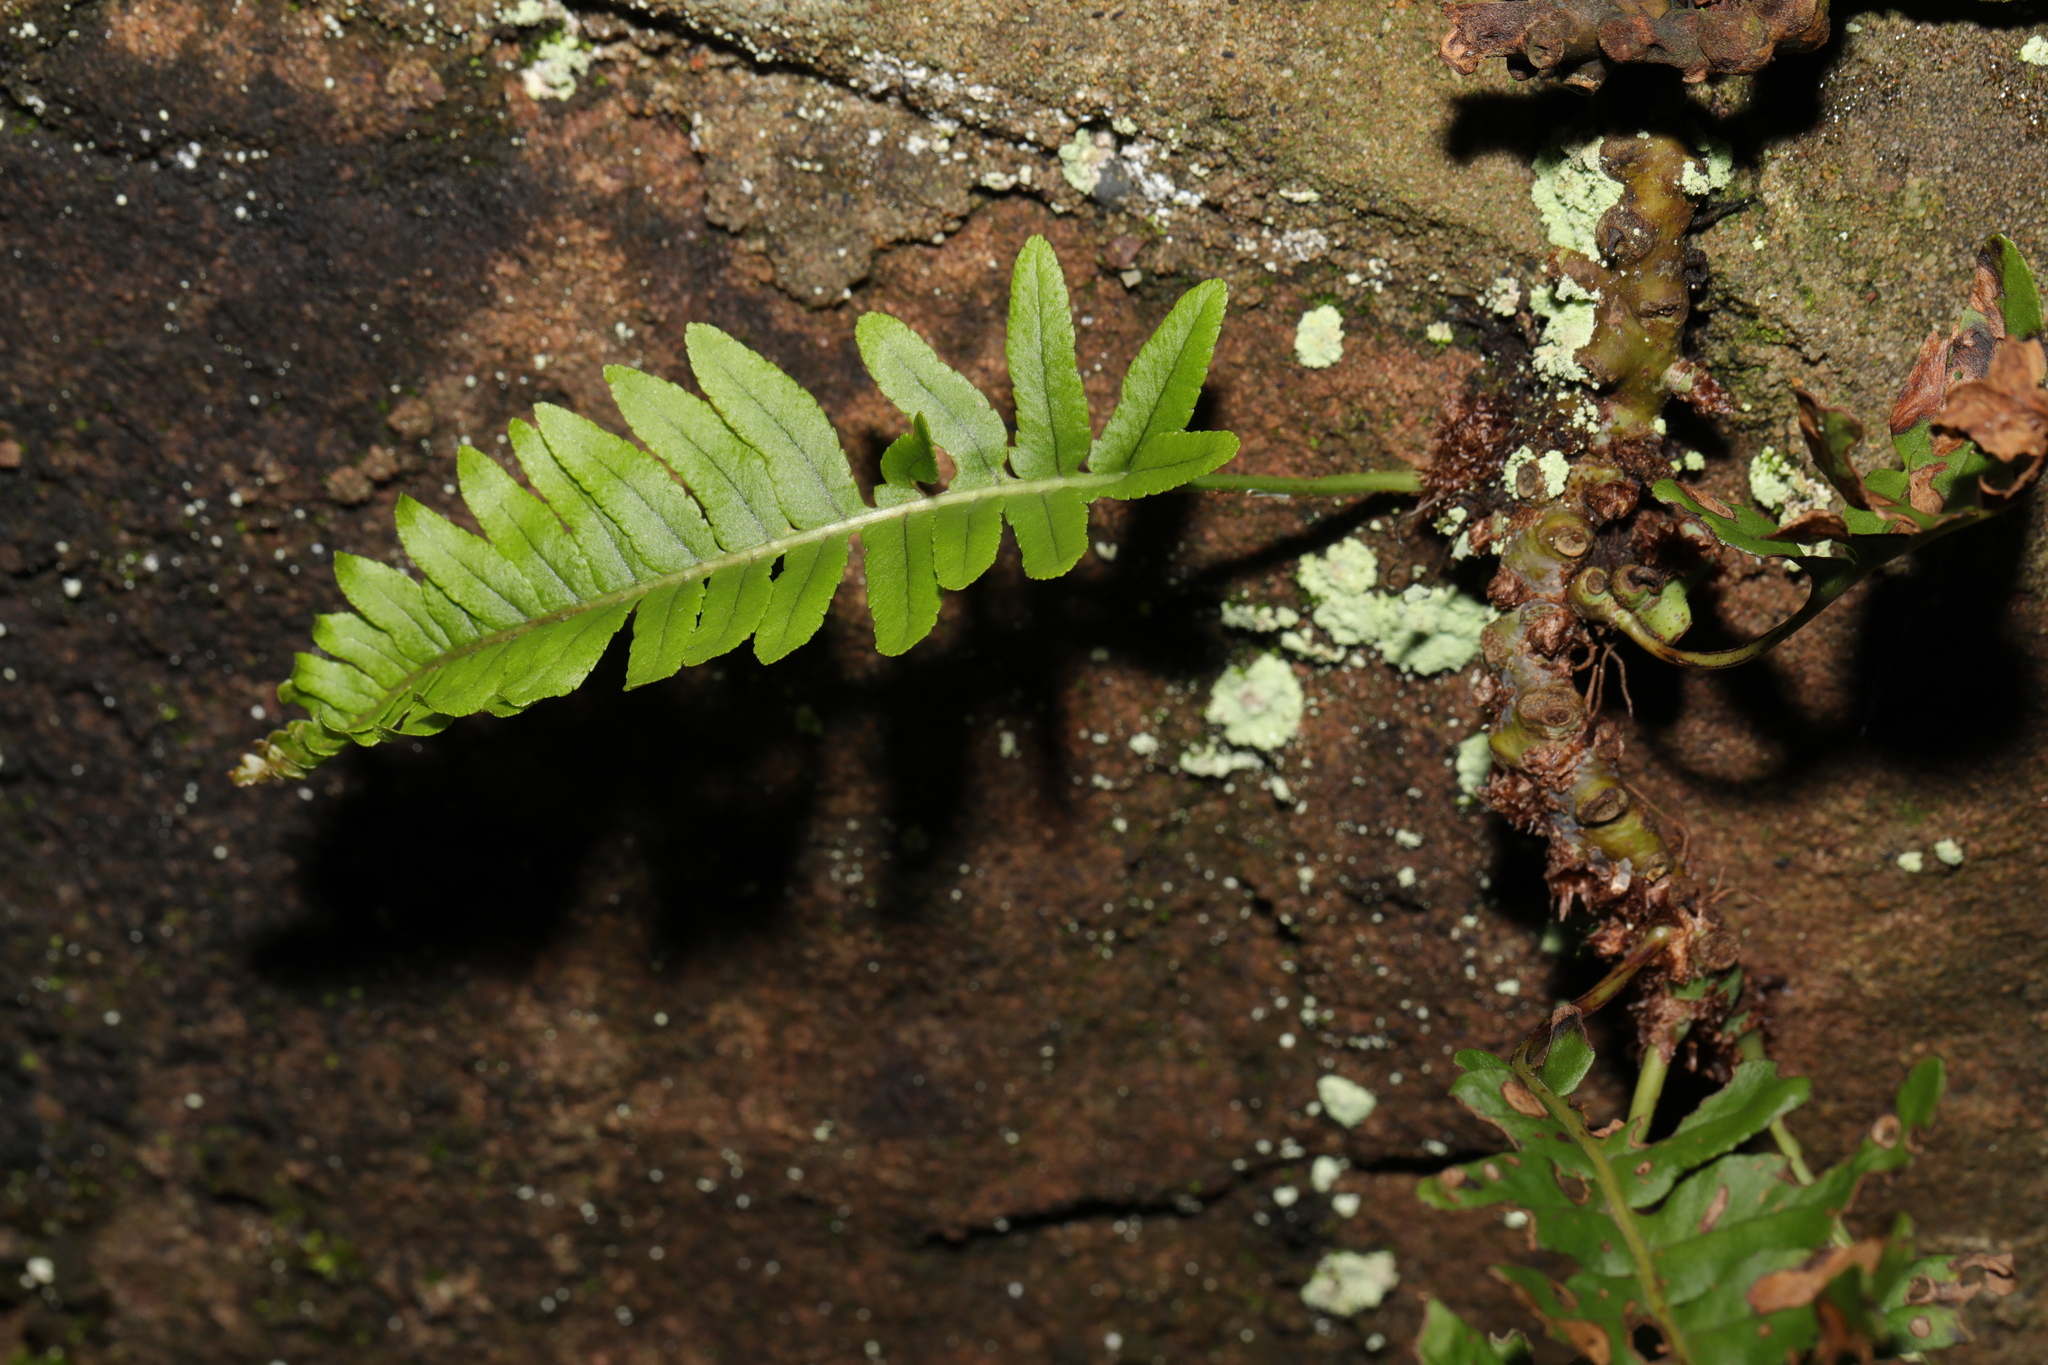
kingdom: Plantae
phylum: Tracheophyta
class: Polypodiopsida
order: Polypodiales
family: Polypodiaceae
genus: Polypodium
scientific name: Polypodium vulgare
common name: Common polypody
